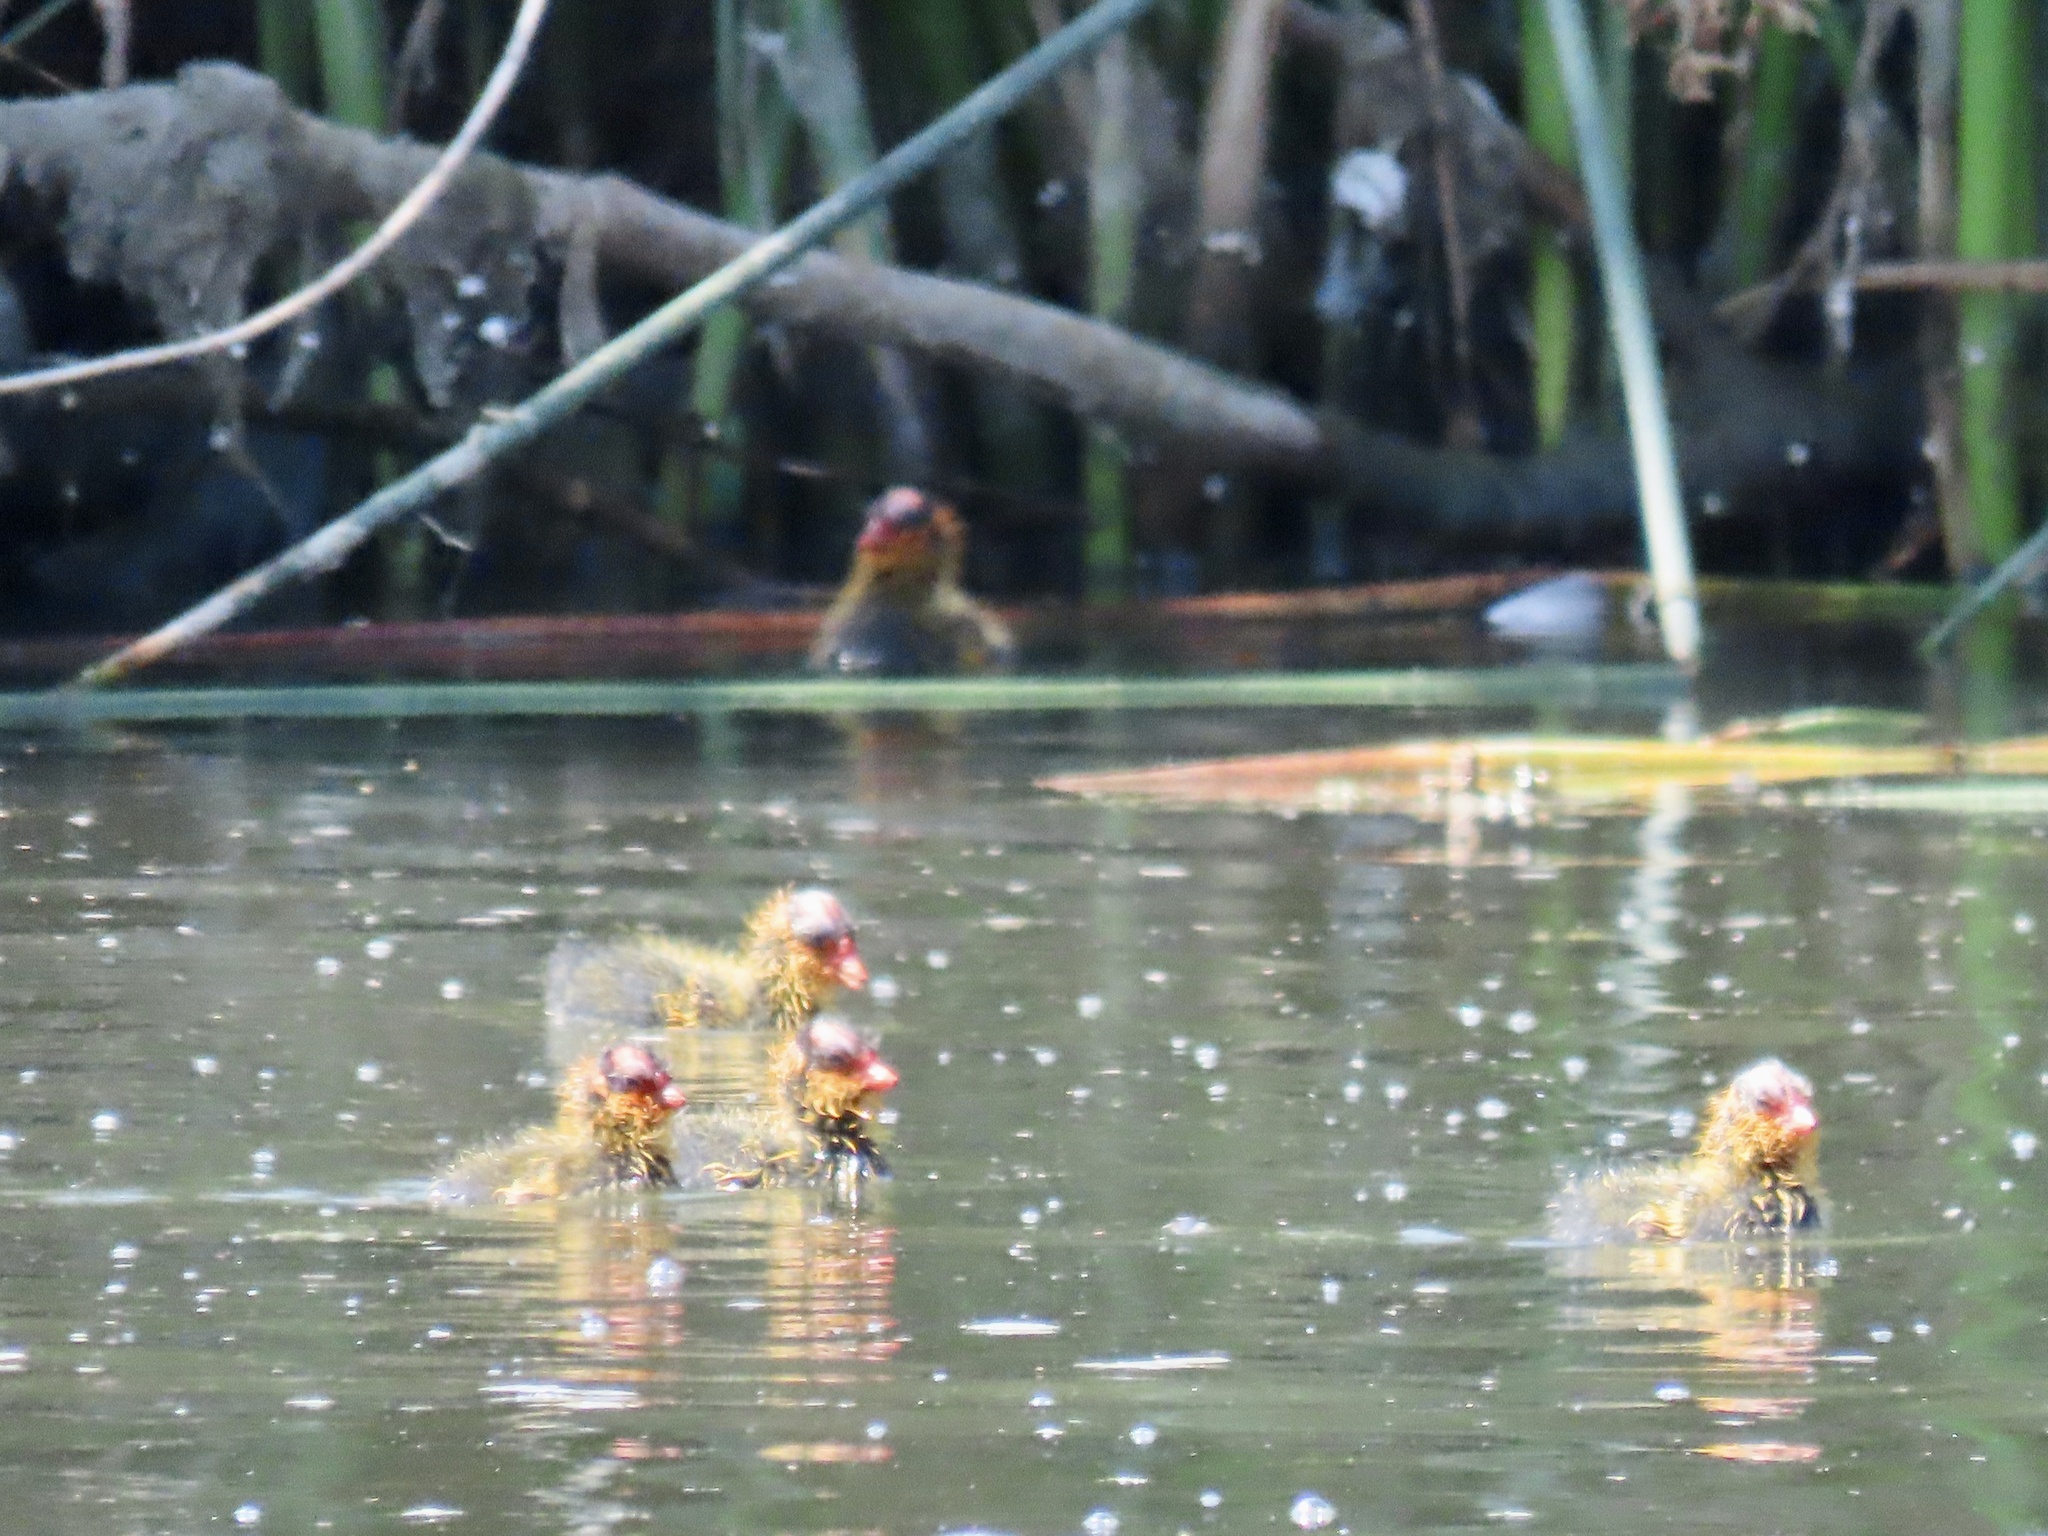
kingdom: Animalia
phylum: Chordata
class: Aves
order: Gruiformes
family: Rallidae
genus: Fulica
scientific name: Fulica americana
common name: American coot
